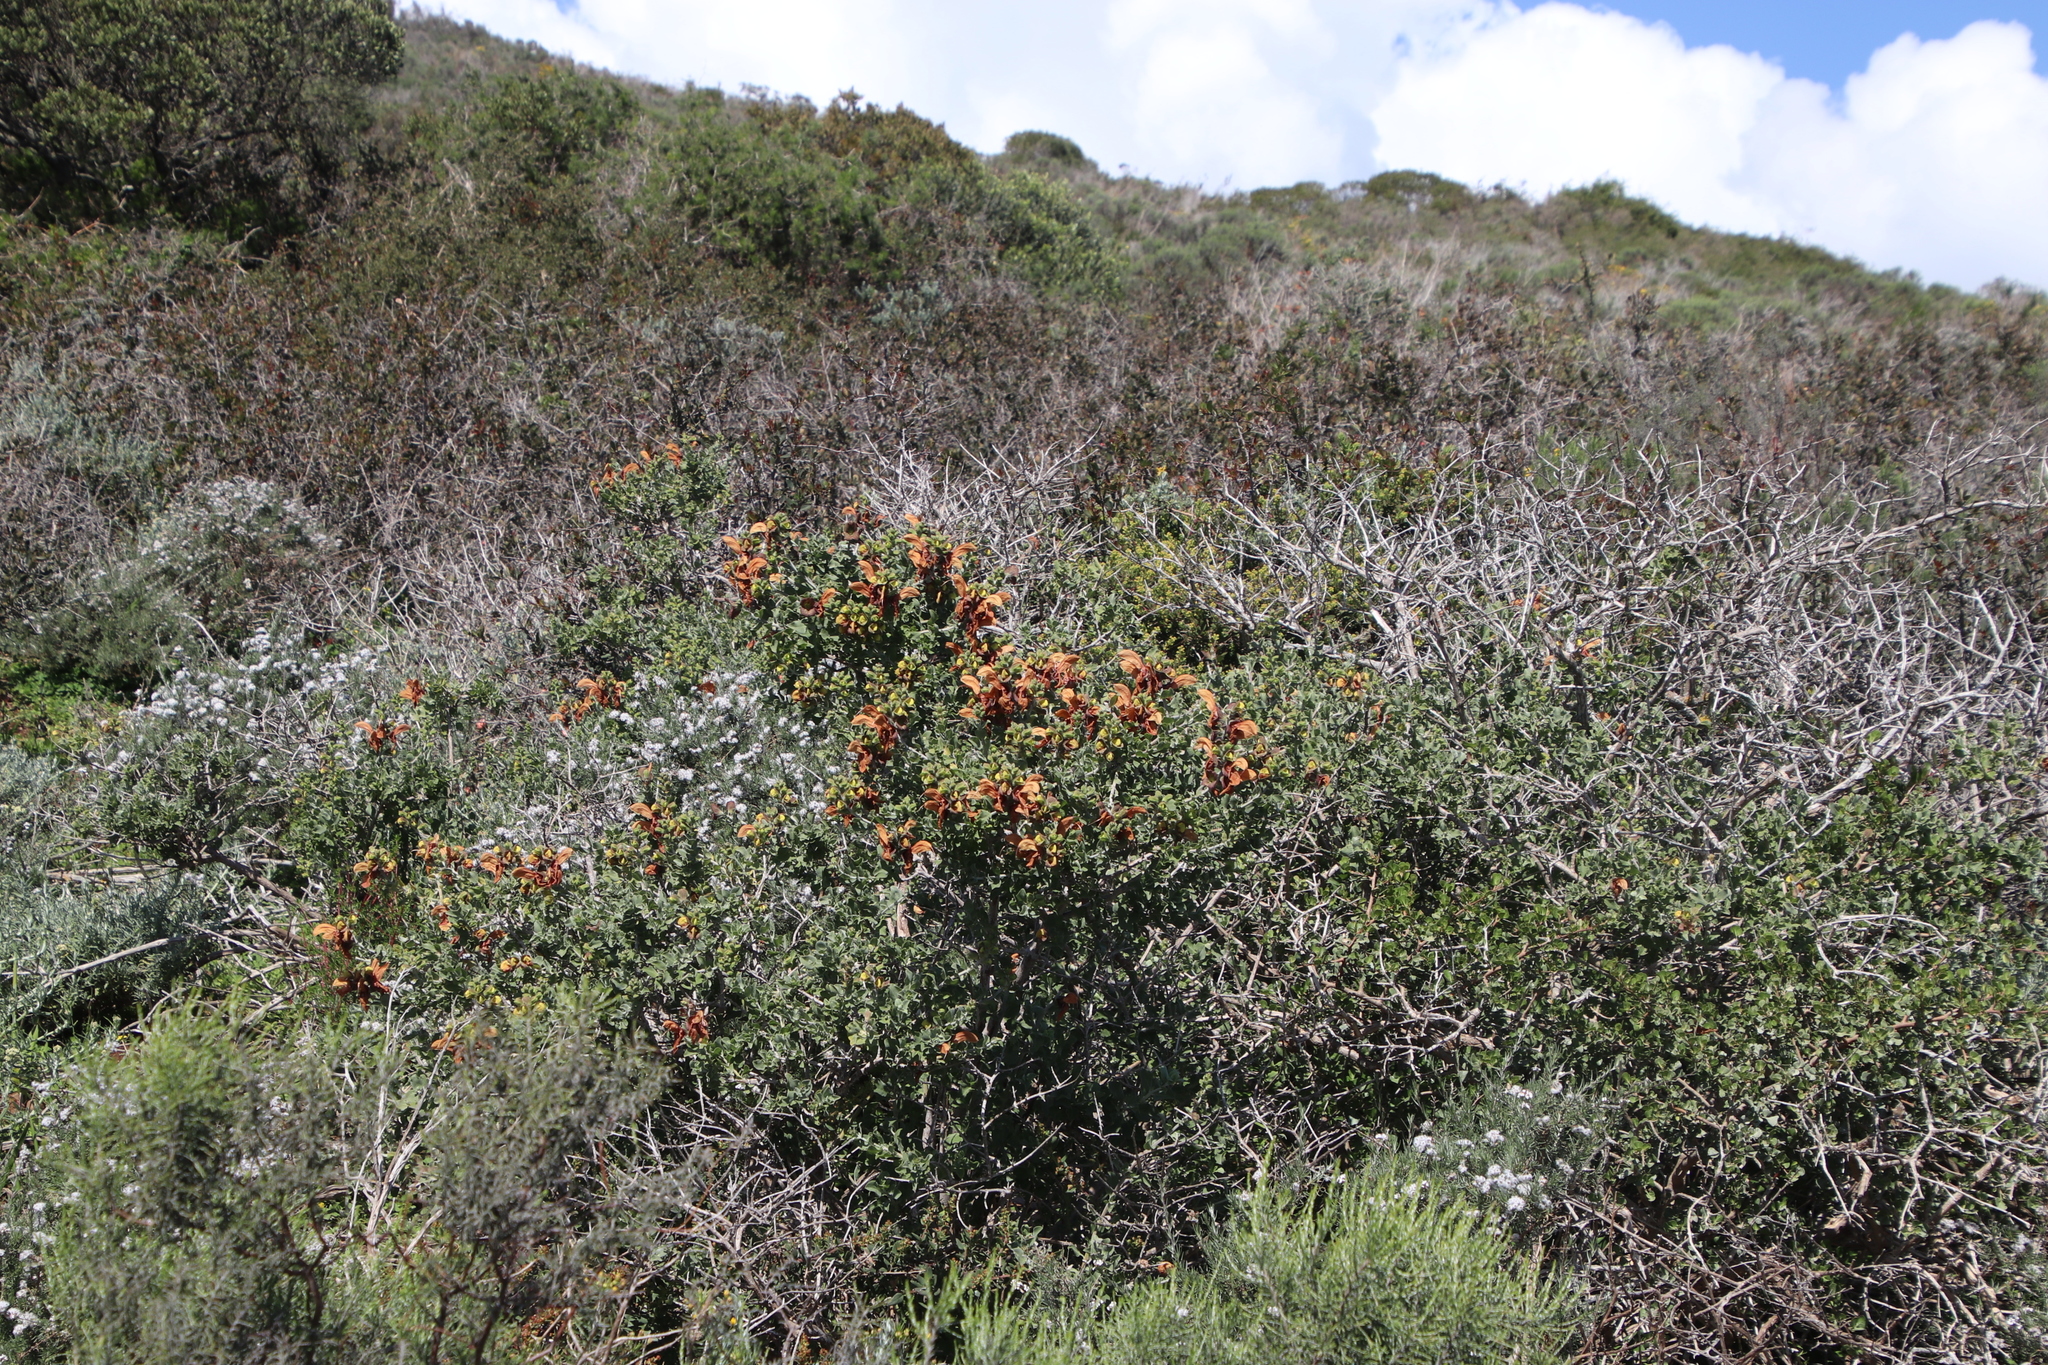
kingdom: Plantae
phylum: Tracheophyta
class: Magnoliopsida
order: Lamiales
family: Lamiaceae
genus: Salvia
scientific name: Salvia aurea
